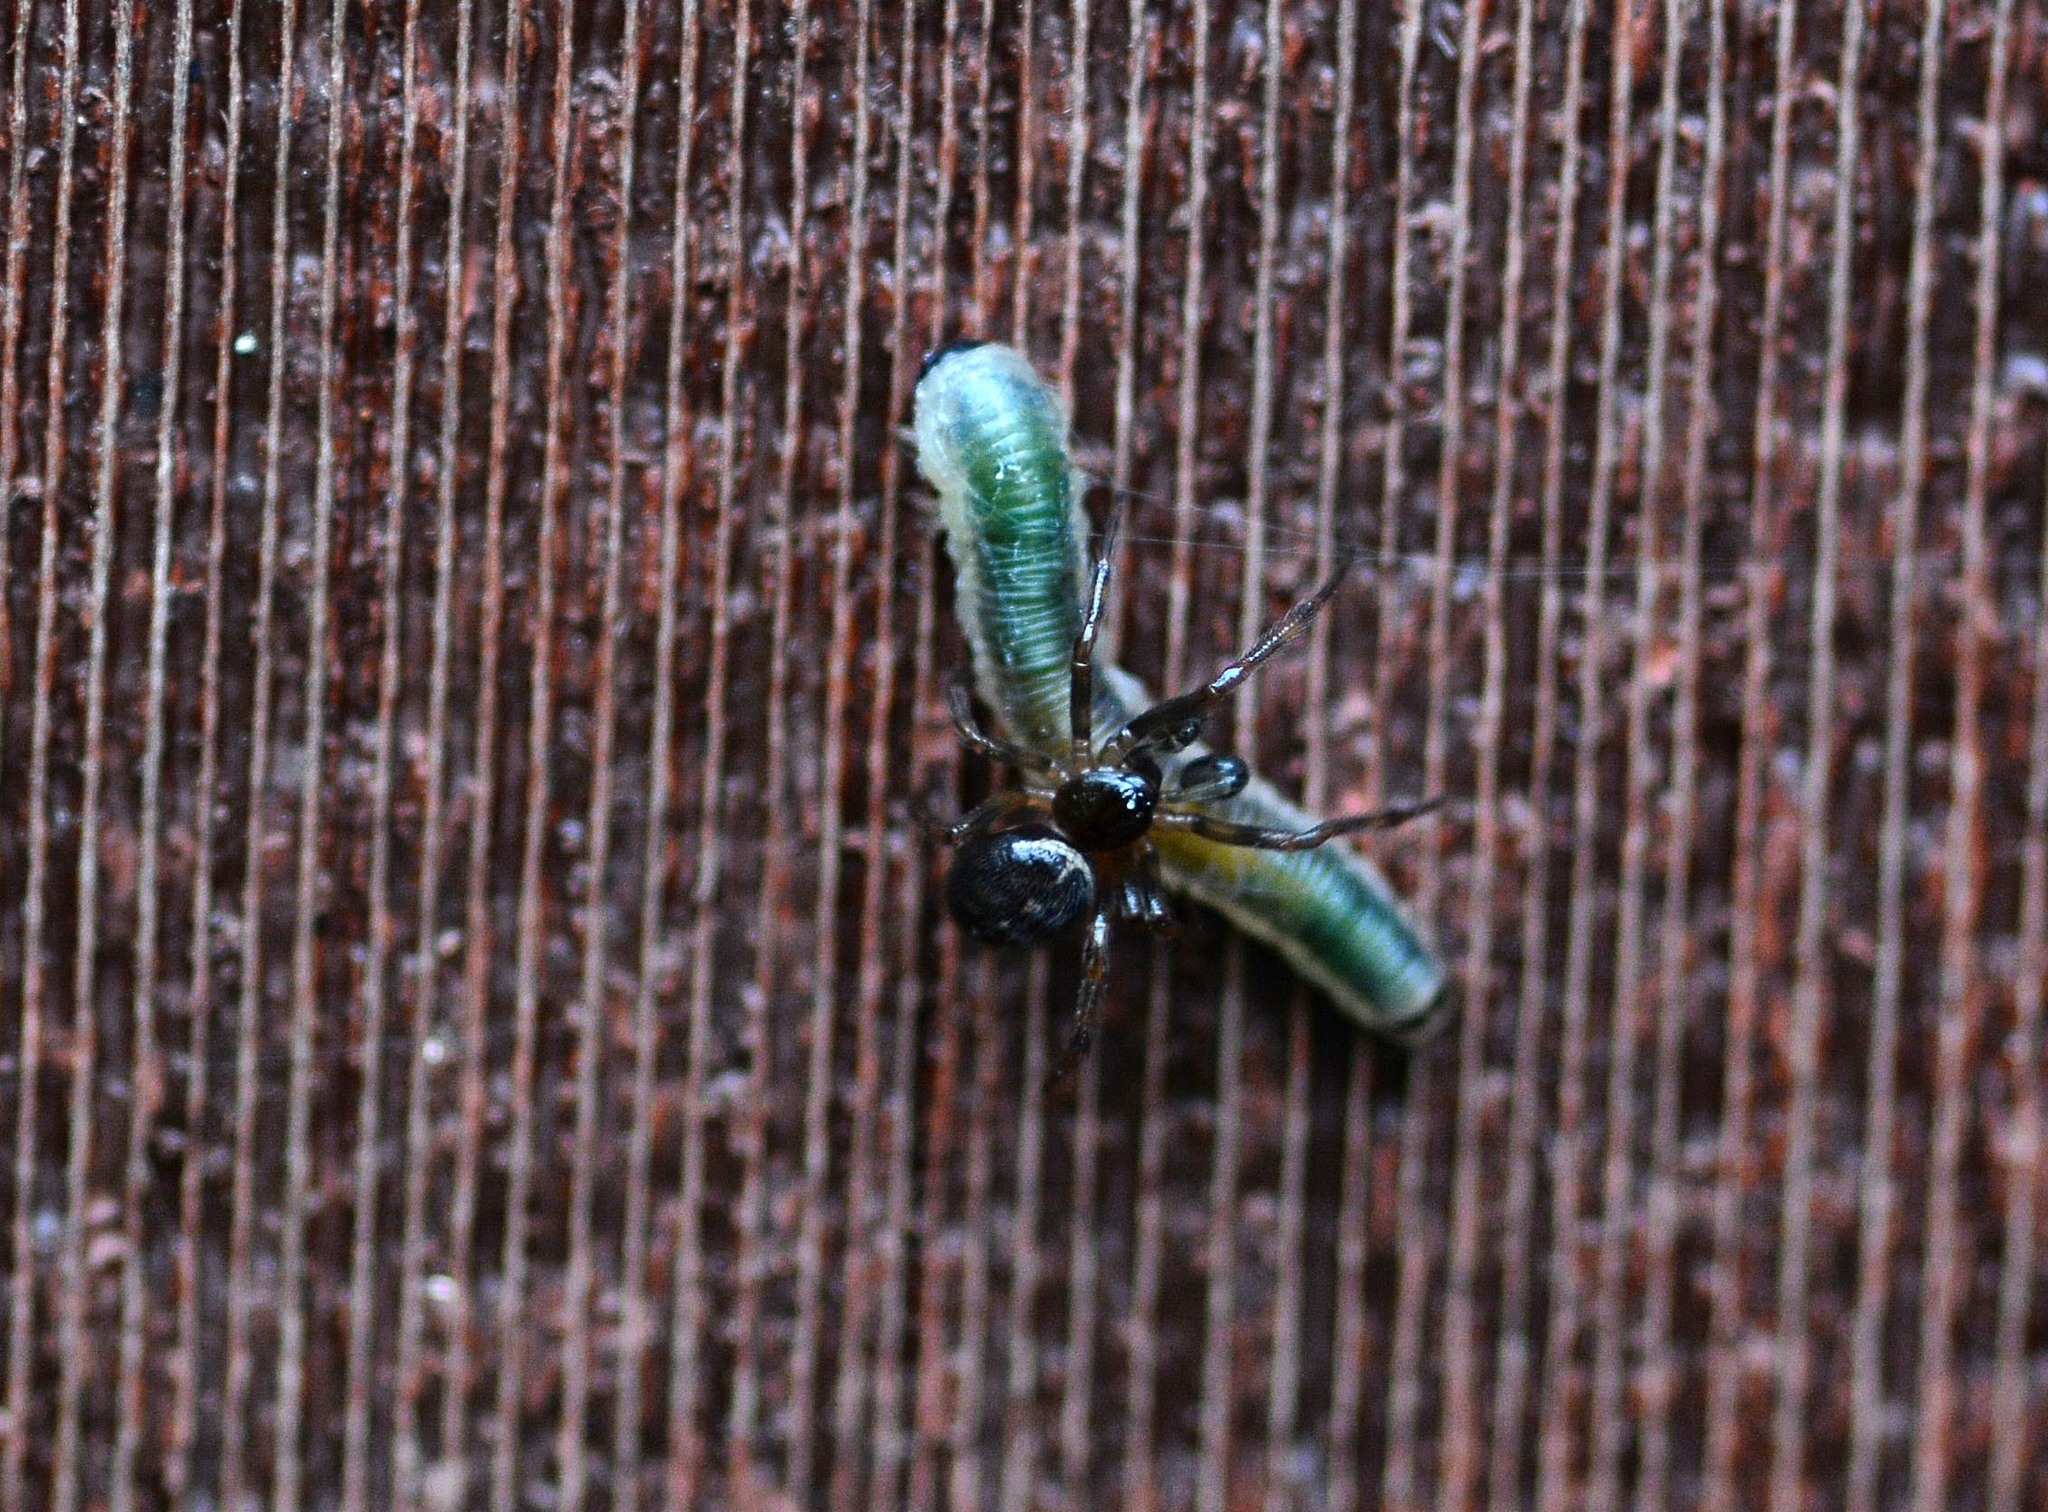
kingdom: Animalia
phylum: Arthropoda
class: Arachnida
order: Araneae
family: Theridiidae
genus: Steatoda
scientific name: Steatoda bipunctata
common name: False widow
